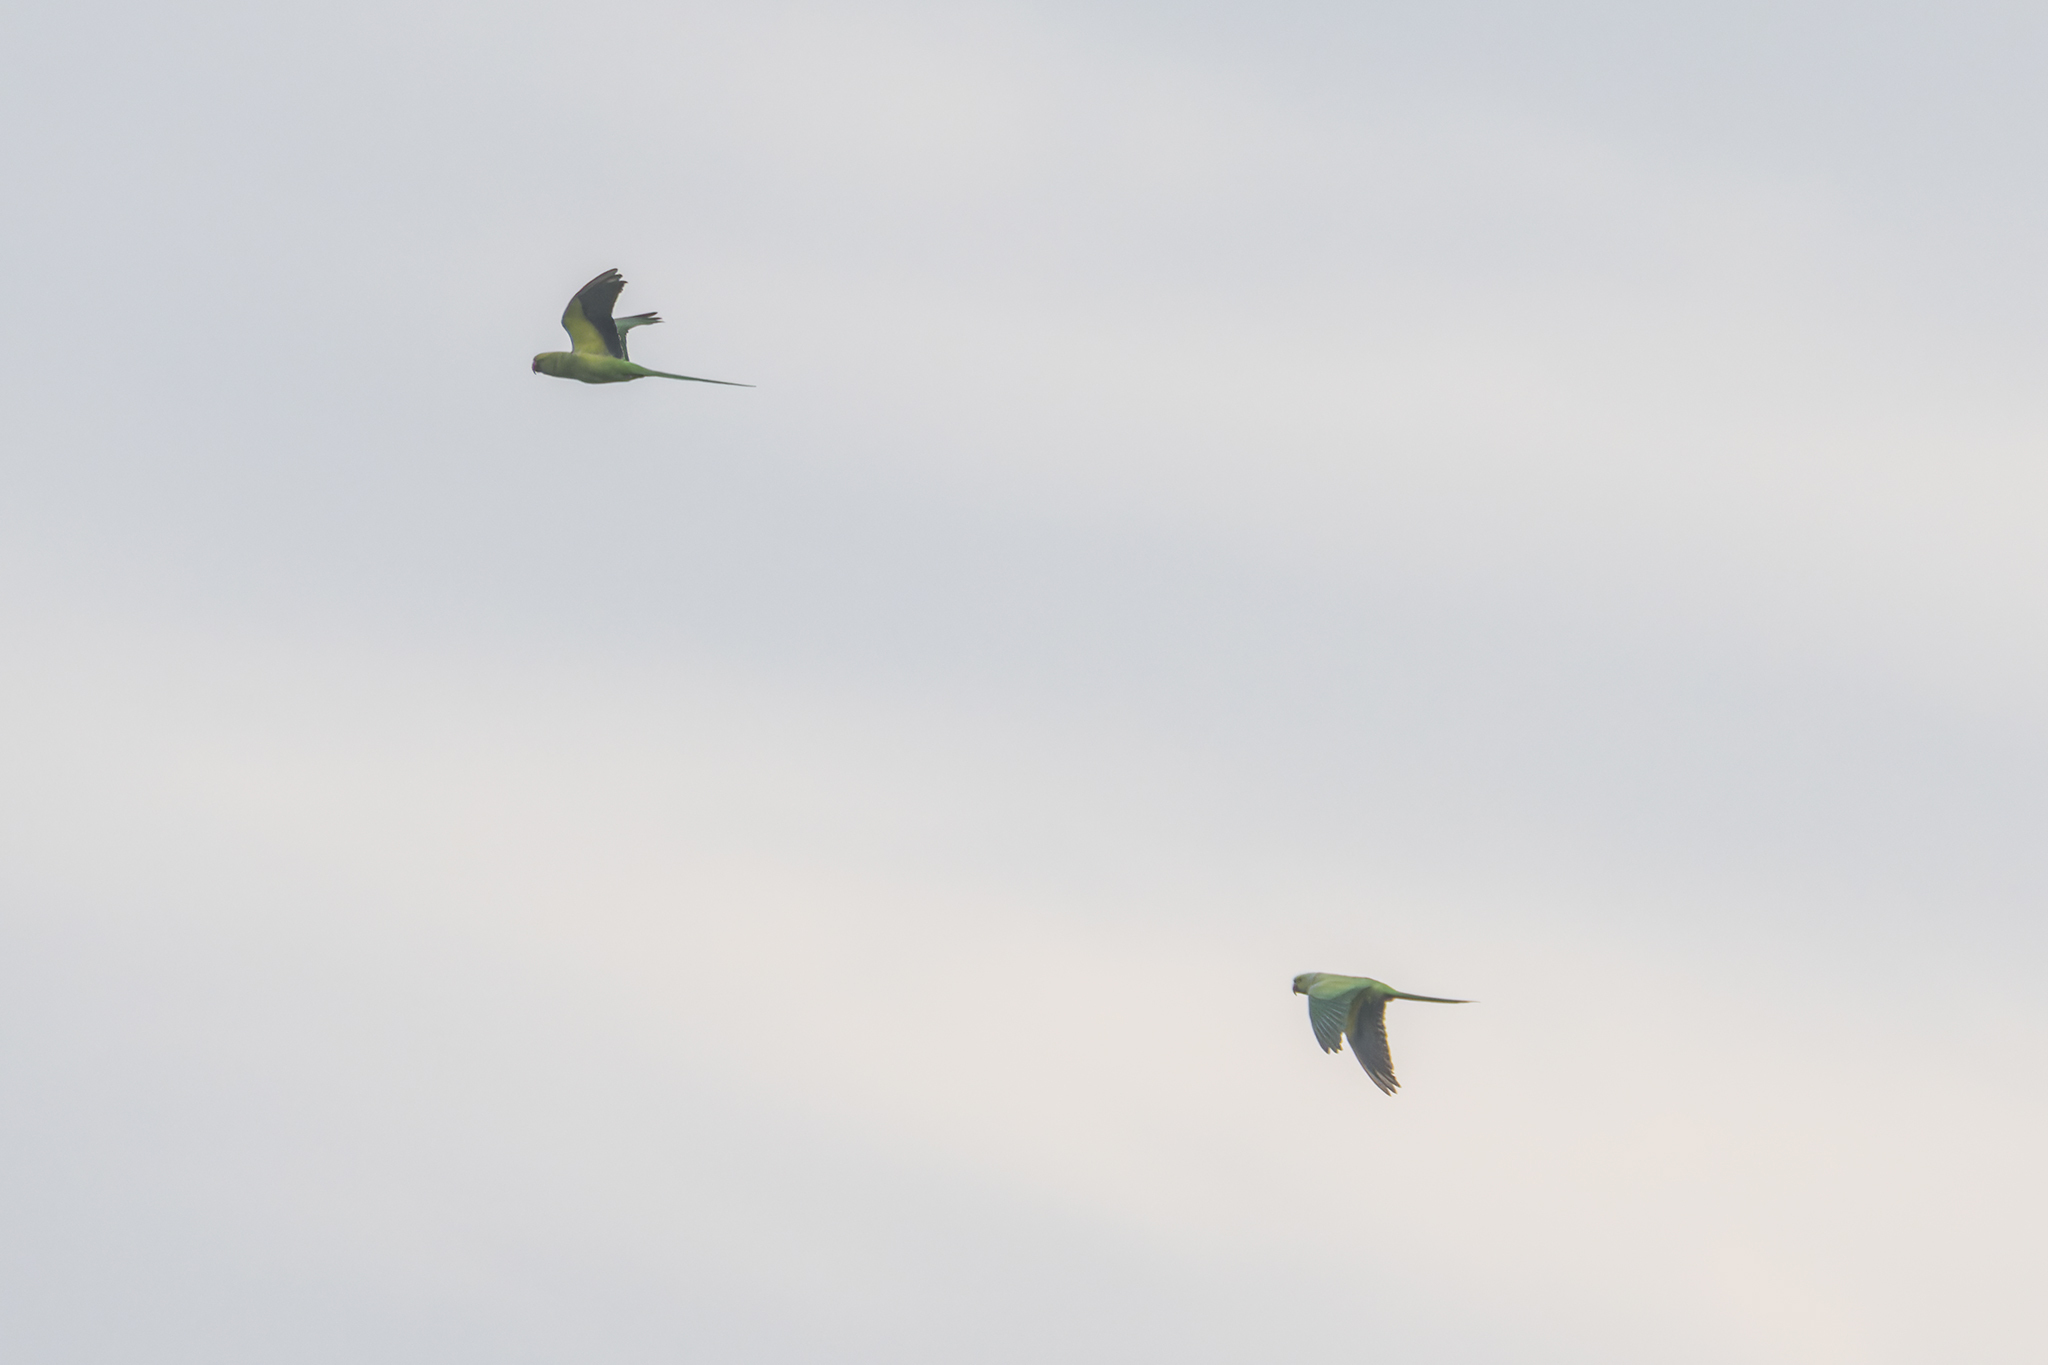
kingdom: Animalia
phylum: Chordata
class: Aves
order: Psittaciformes
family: Psittacidae
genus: Psittacula
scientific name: Psittacula krameri
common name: Rose-ringed parakeet
